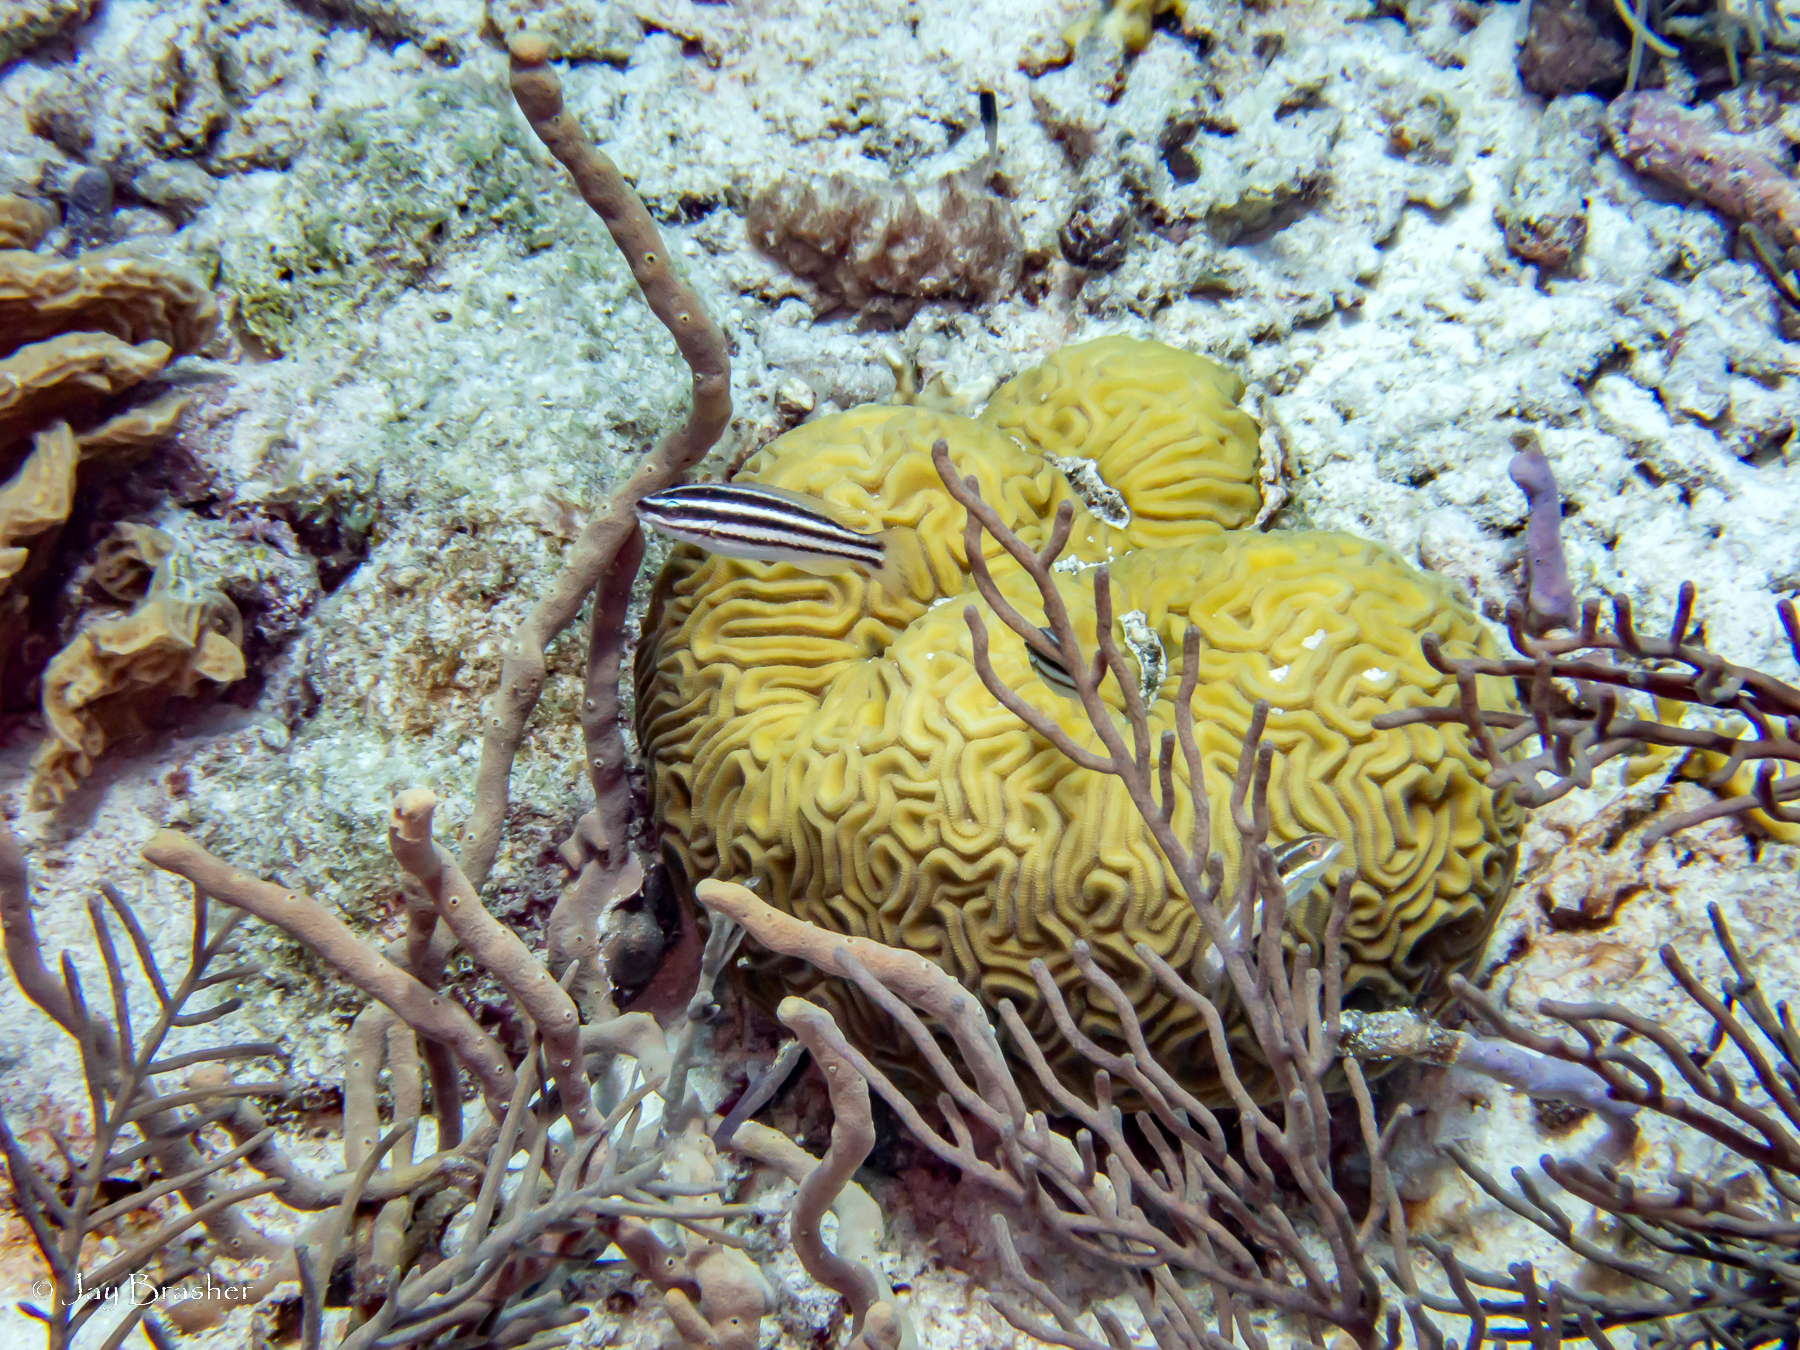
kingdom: Animalia
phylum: Cnidaria
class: Anthozoa
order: Scleractinia
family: Faviidae
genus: Diploria
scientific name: Diploria labyrinthiformis
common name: Grooved brain coral
